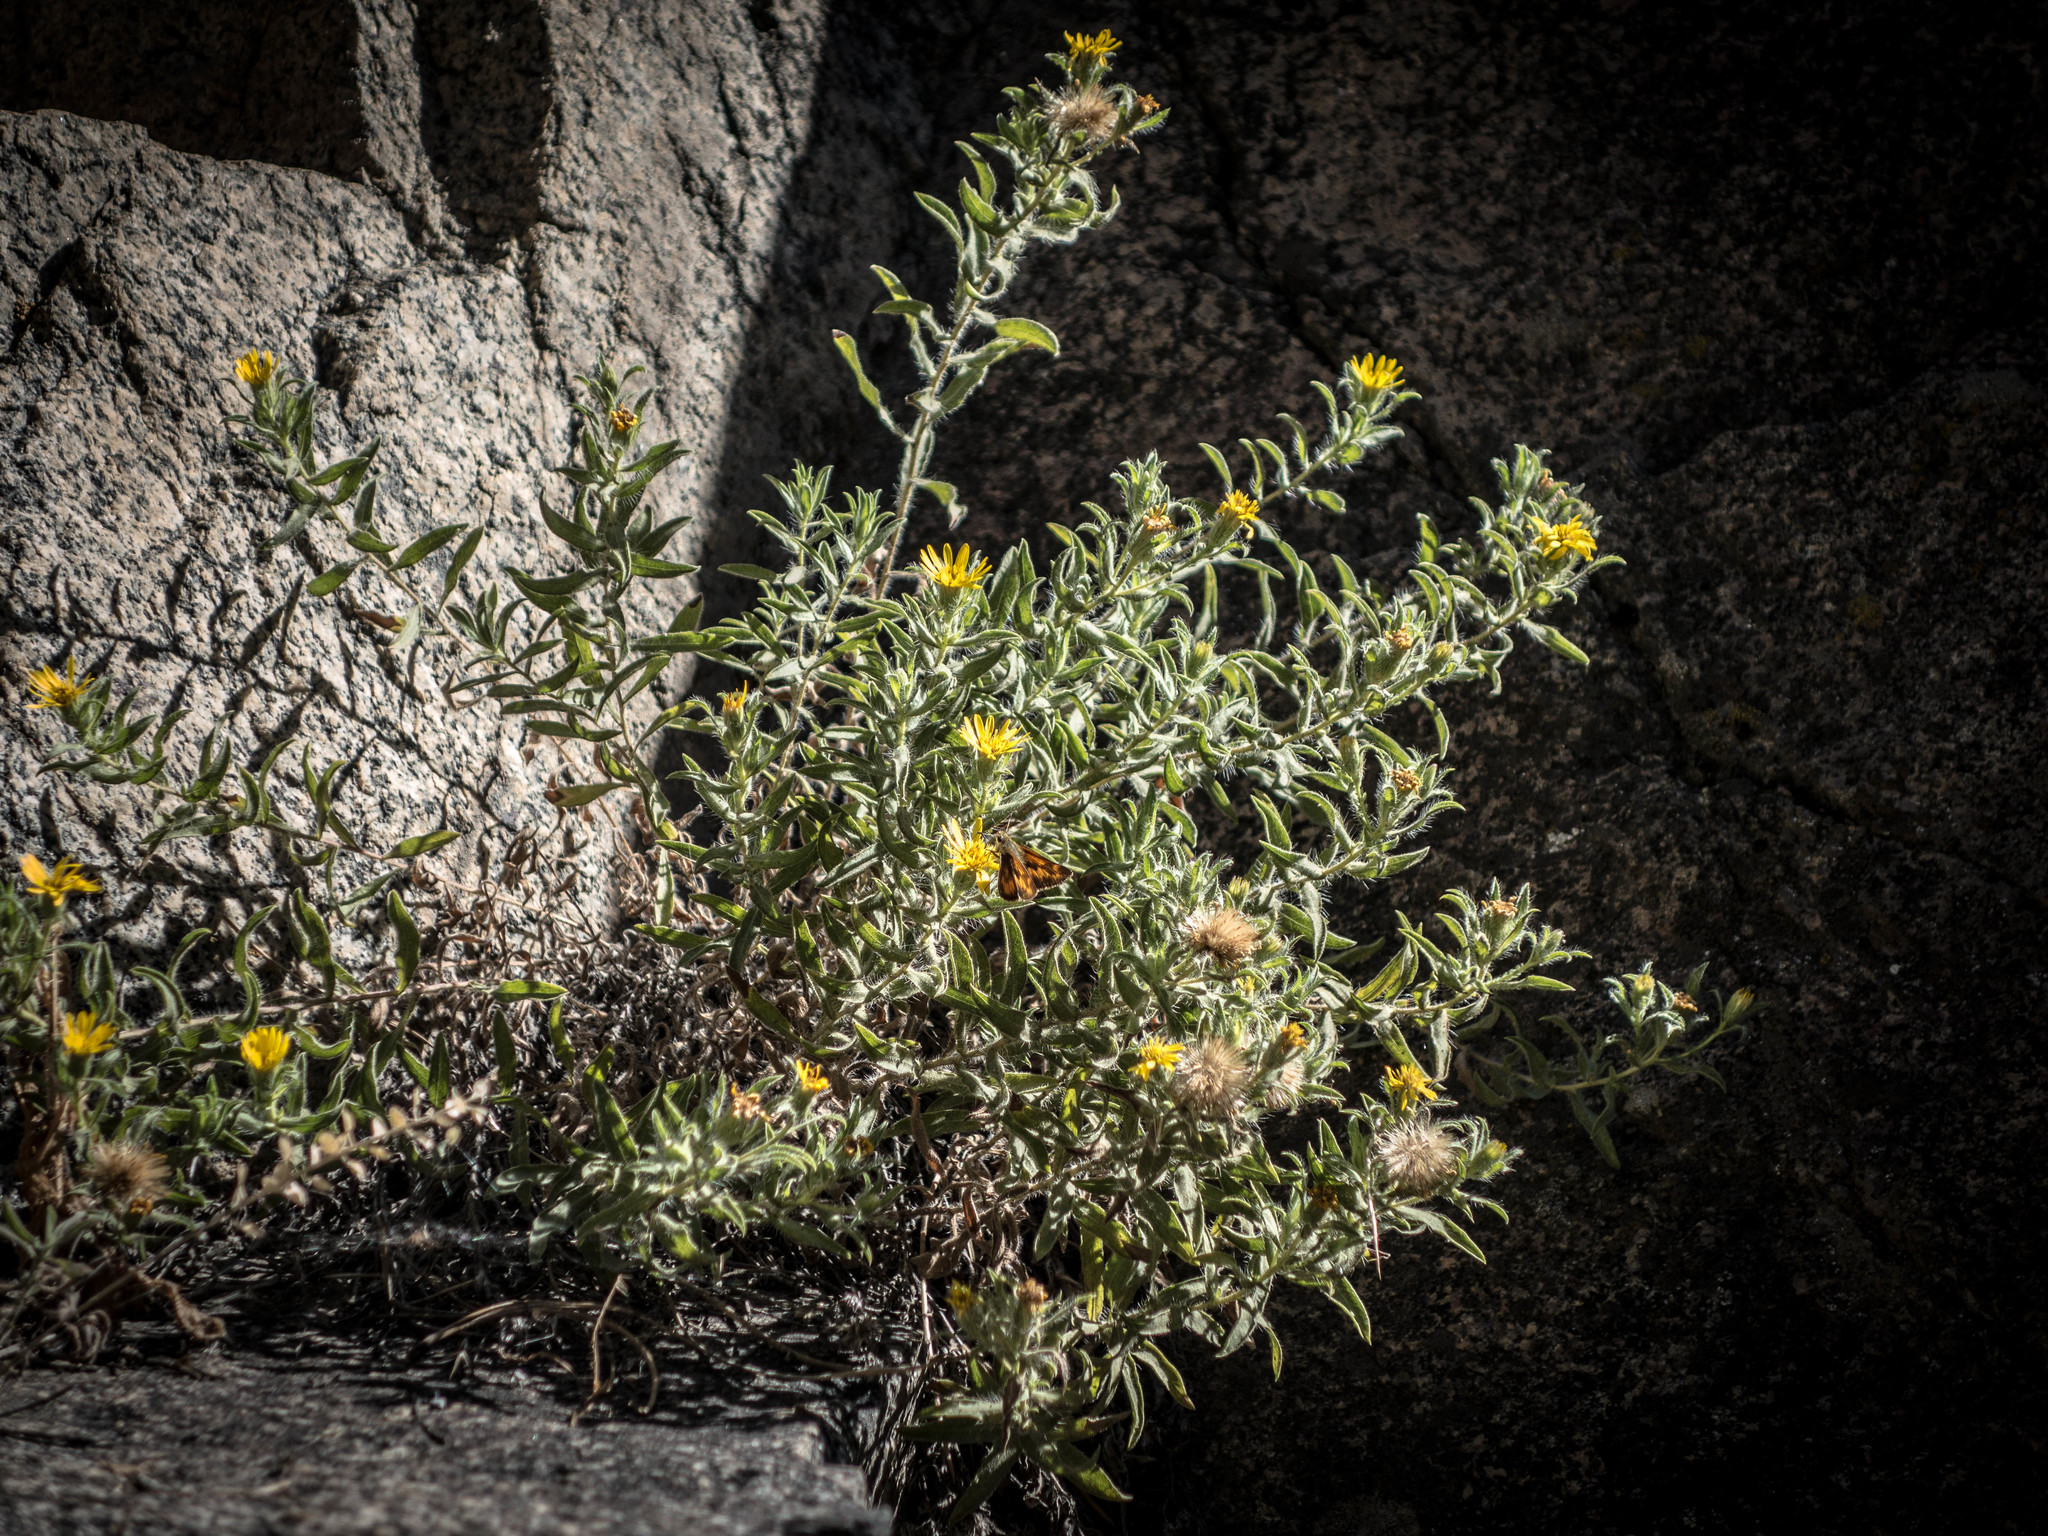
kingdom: Plantae
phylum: Tracheophyta
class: Magnoliopsida
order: Asterales
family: Asteraceae
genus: Heterotheca
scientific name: Heterotheca villosa
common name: Hairy false goldenaster
